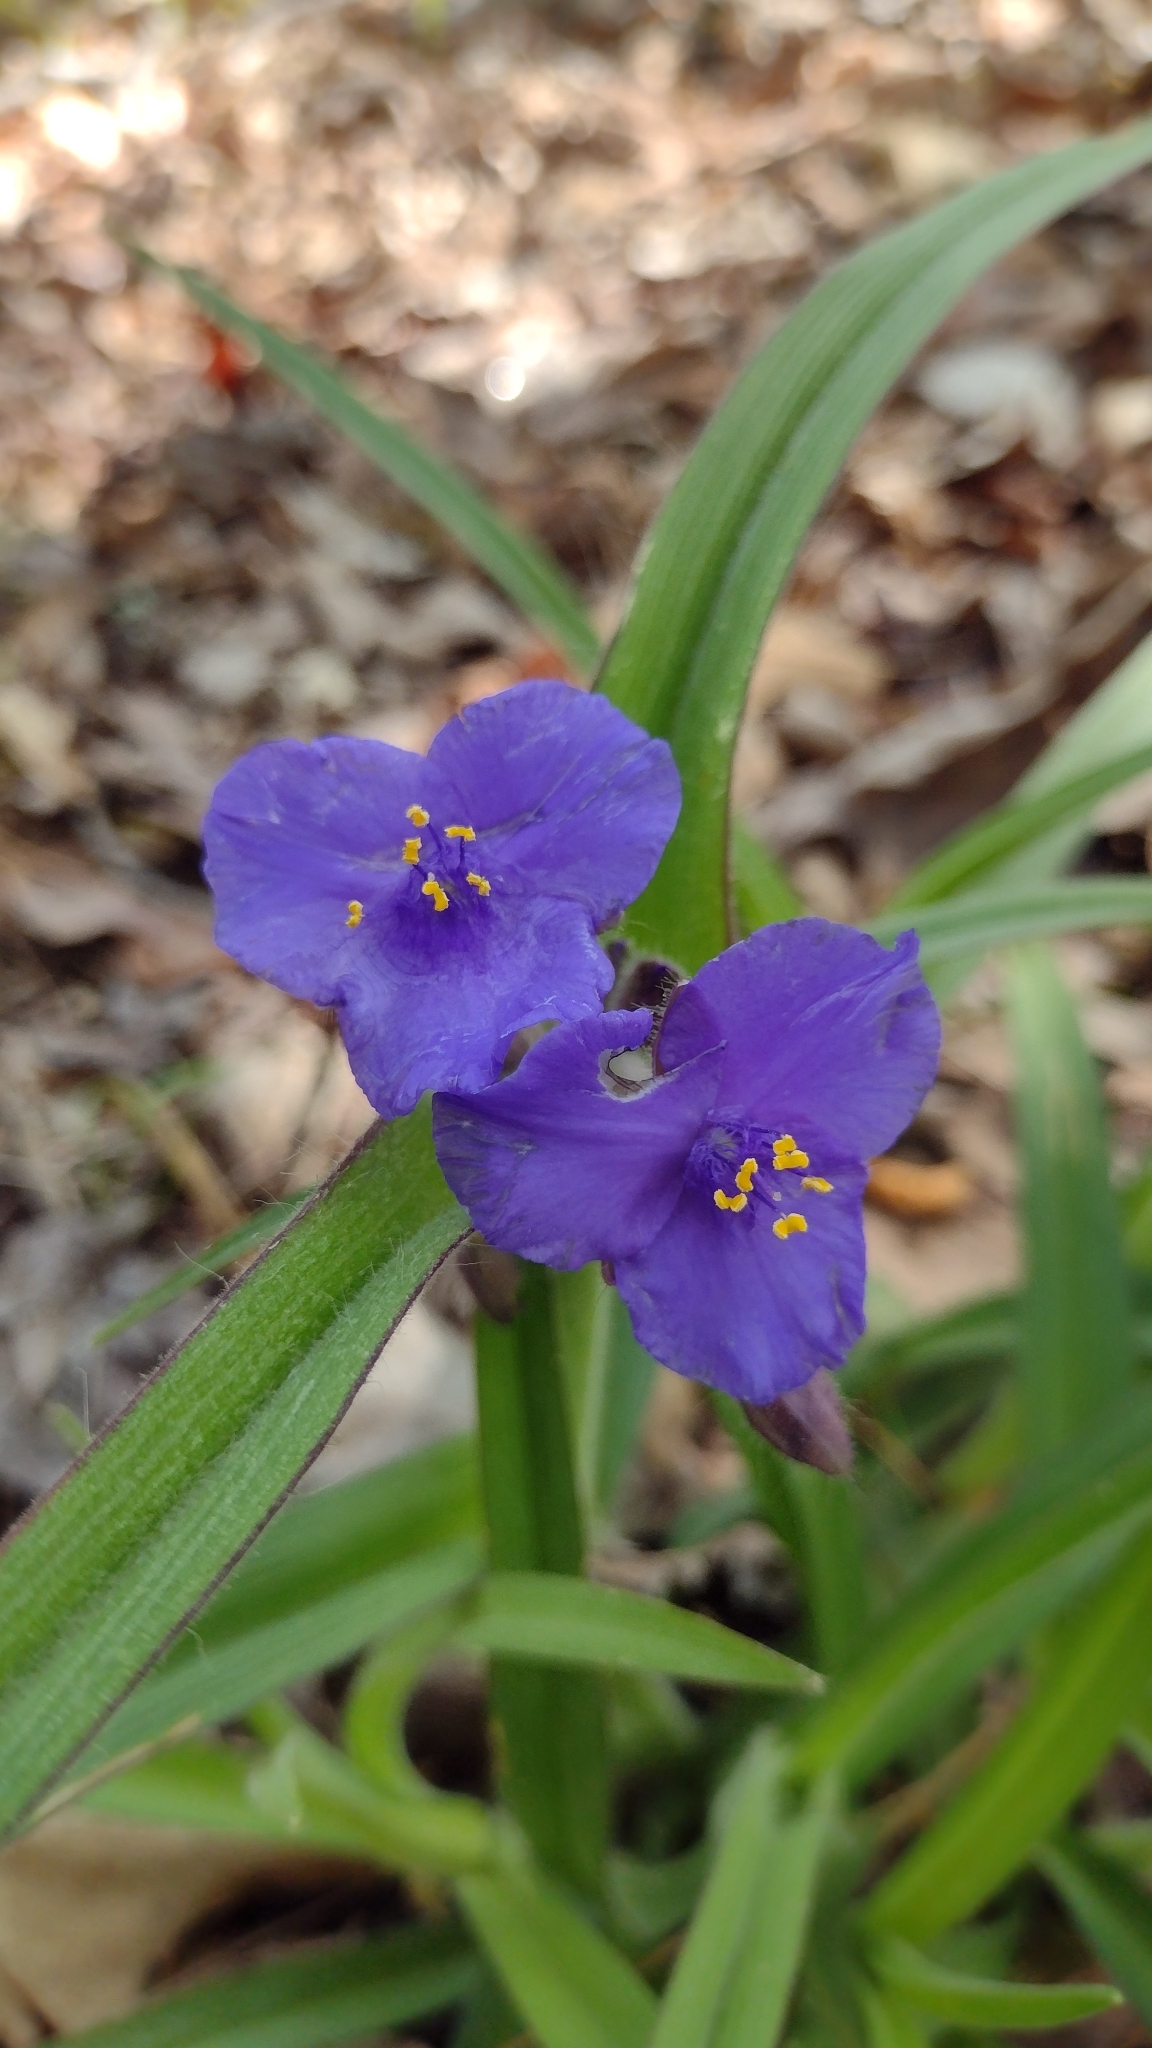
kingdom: Plantae
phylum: Tracheophyta
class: Liliopsida
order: Commelinales
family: Commelinaceae
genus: Tradescantia
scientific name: Tradescantia hirsuticaulis
